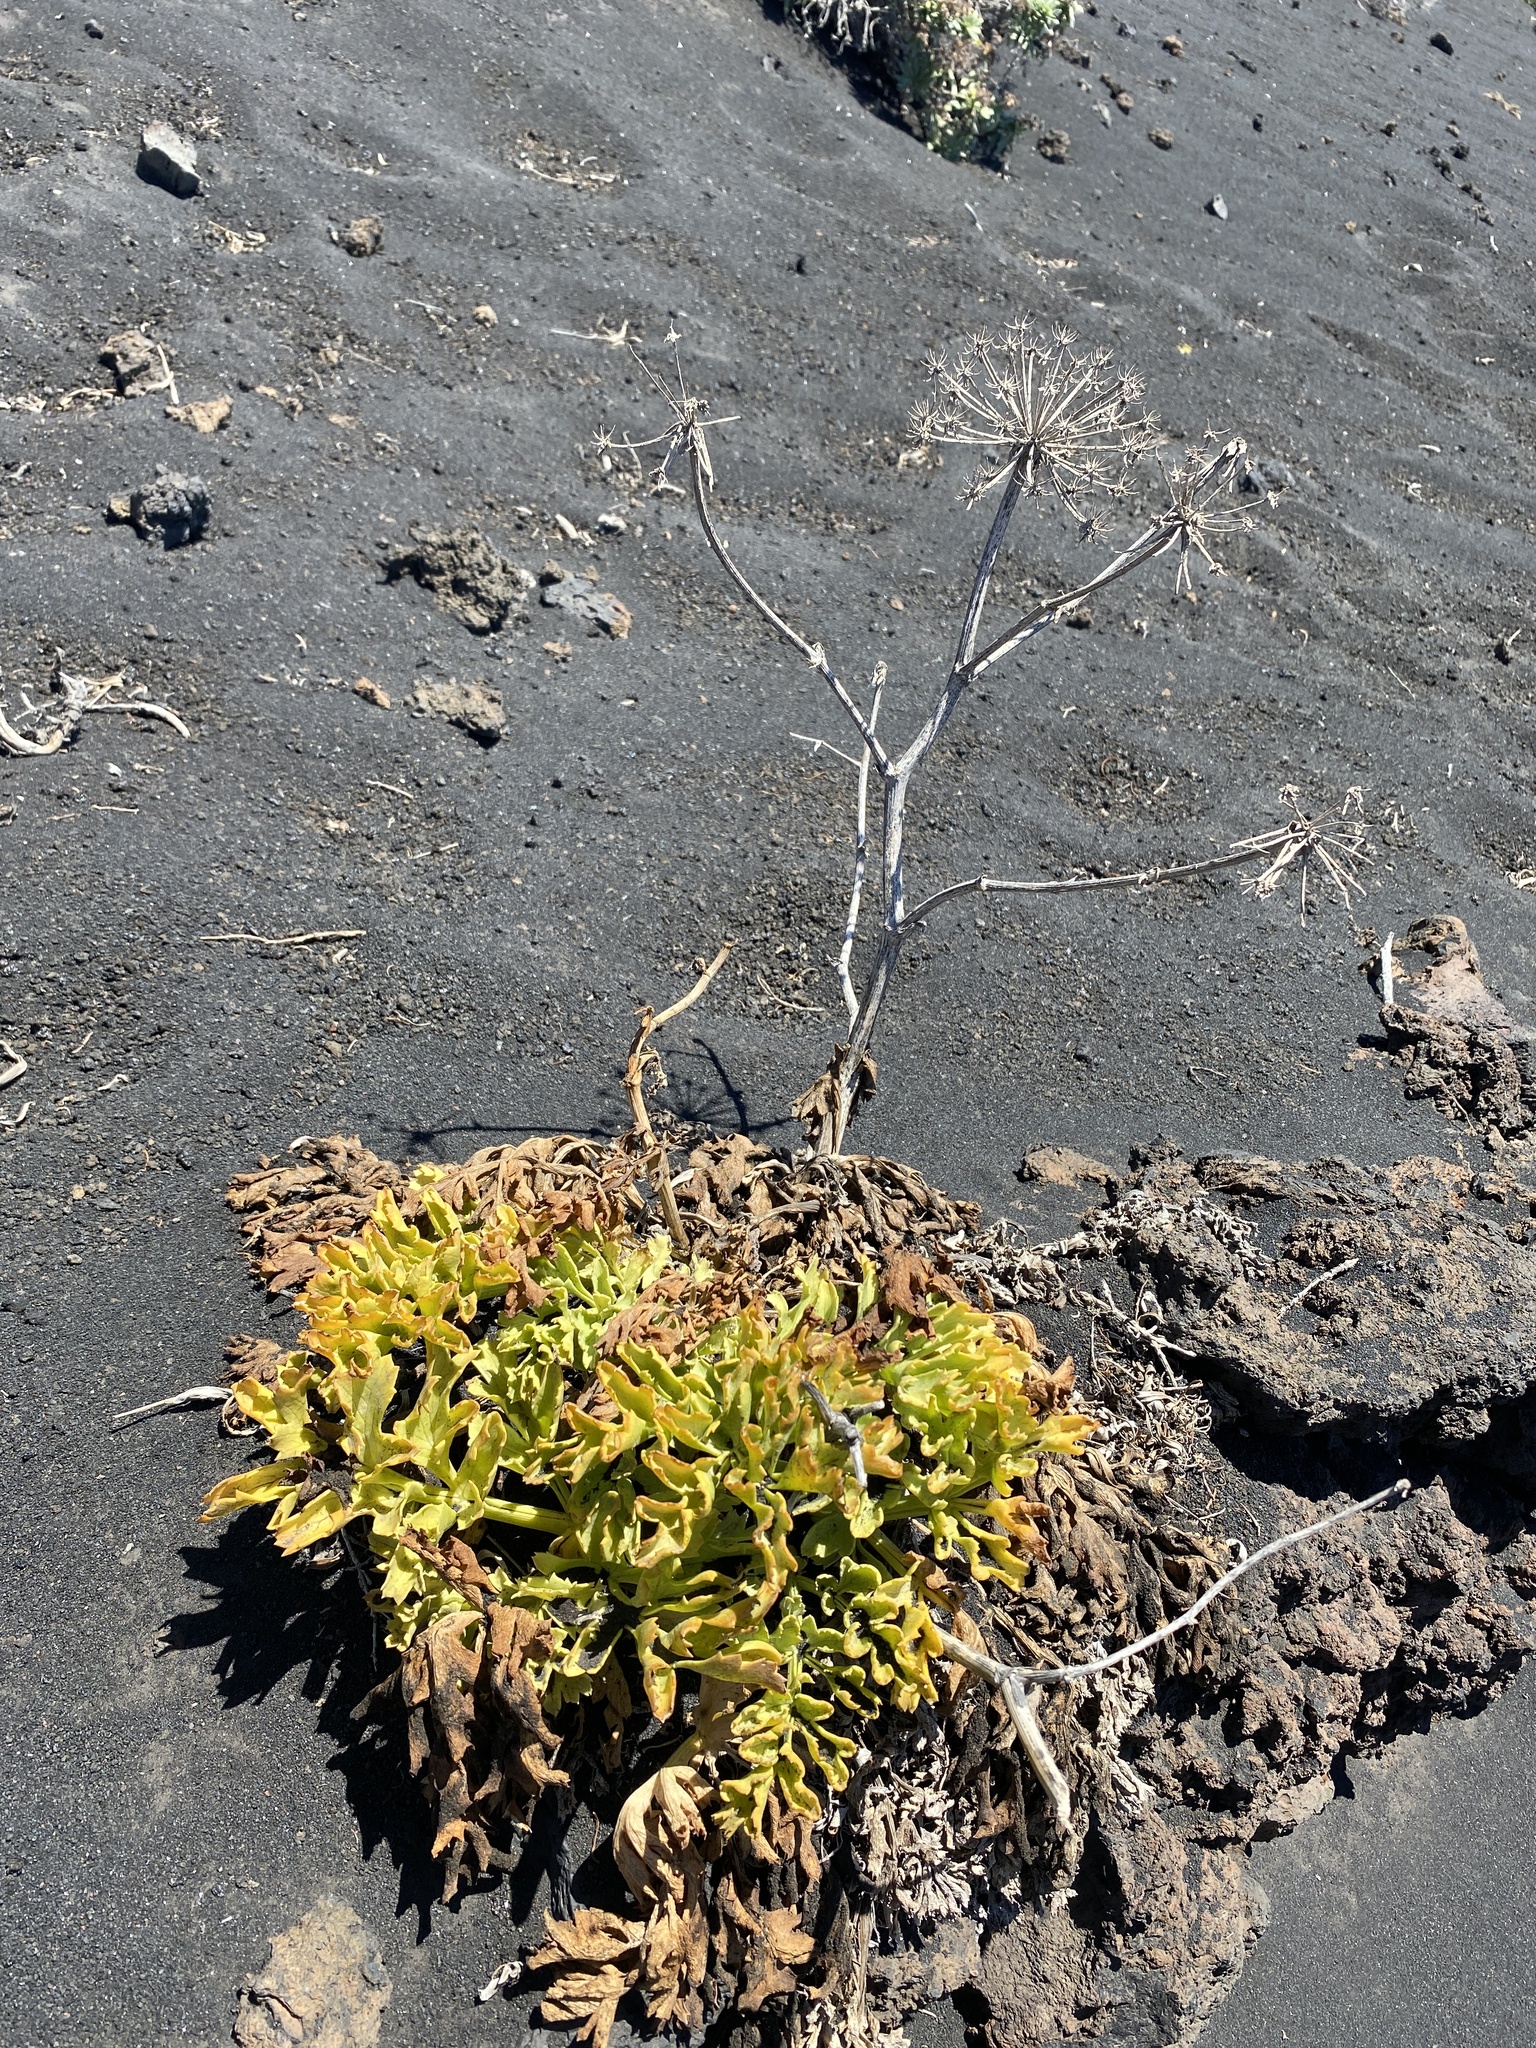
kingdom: Plantae
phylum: Tracheophyta
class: Magnoliopsida
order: Apiales
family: Apiaceae
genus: Astydamia
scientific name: Astydamia latifolia
